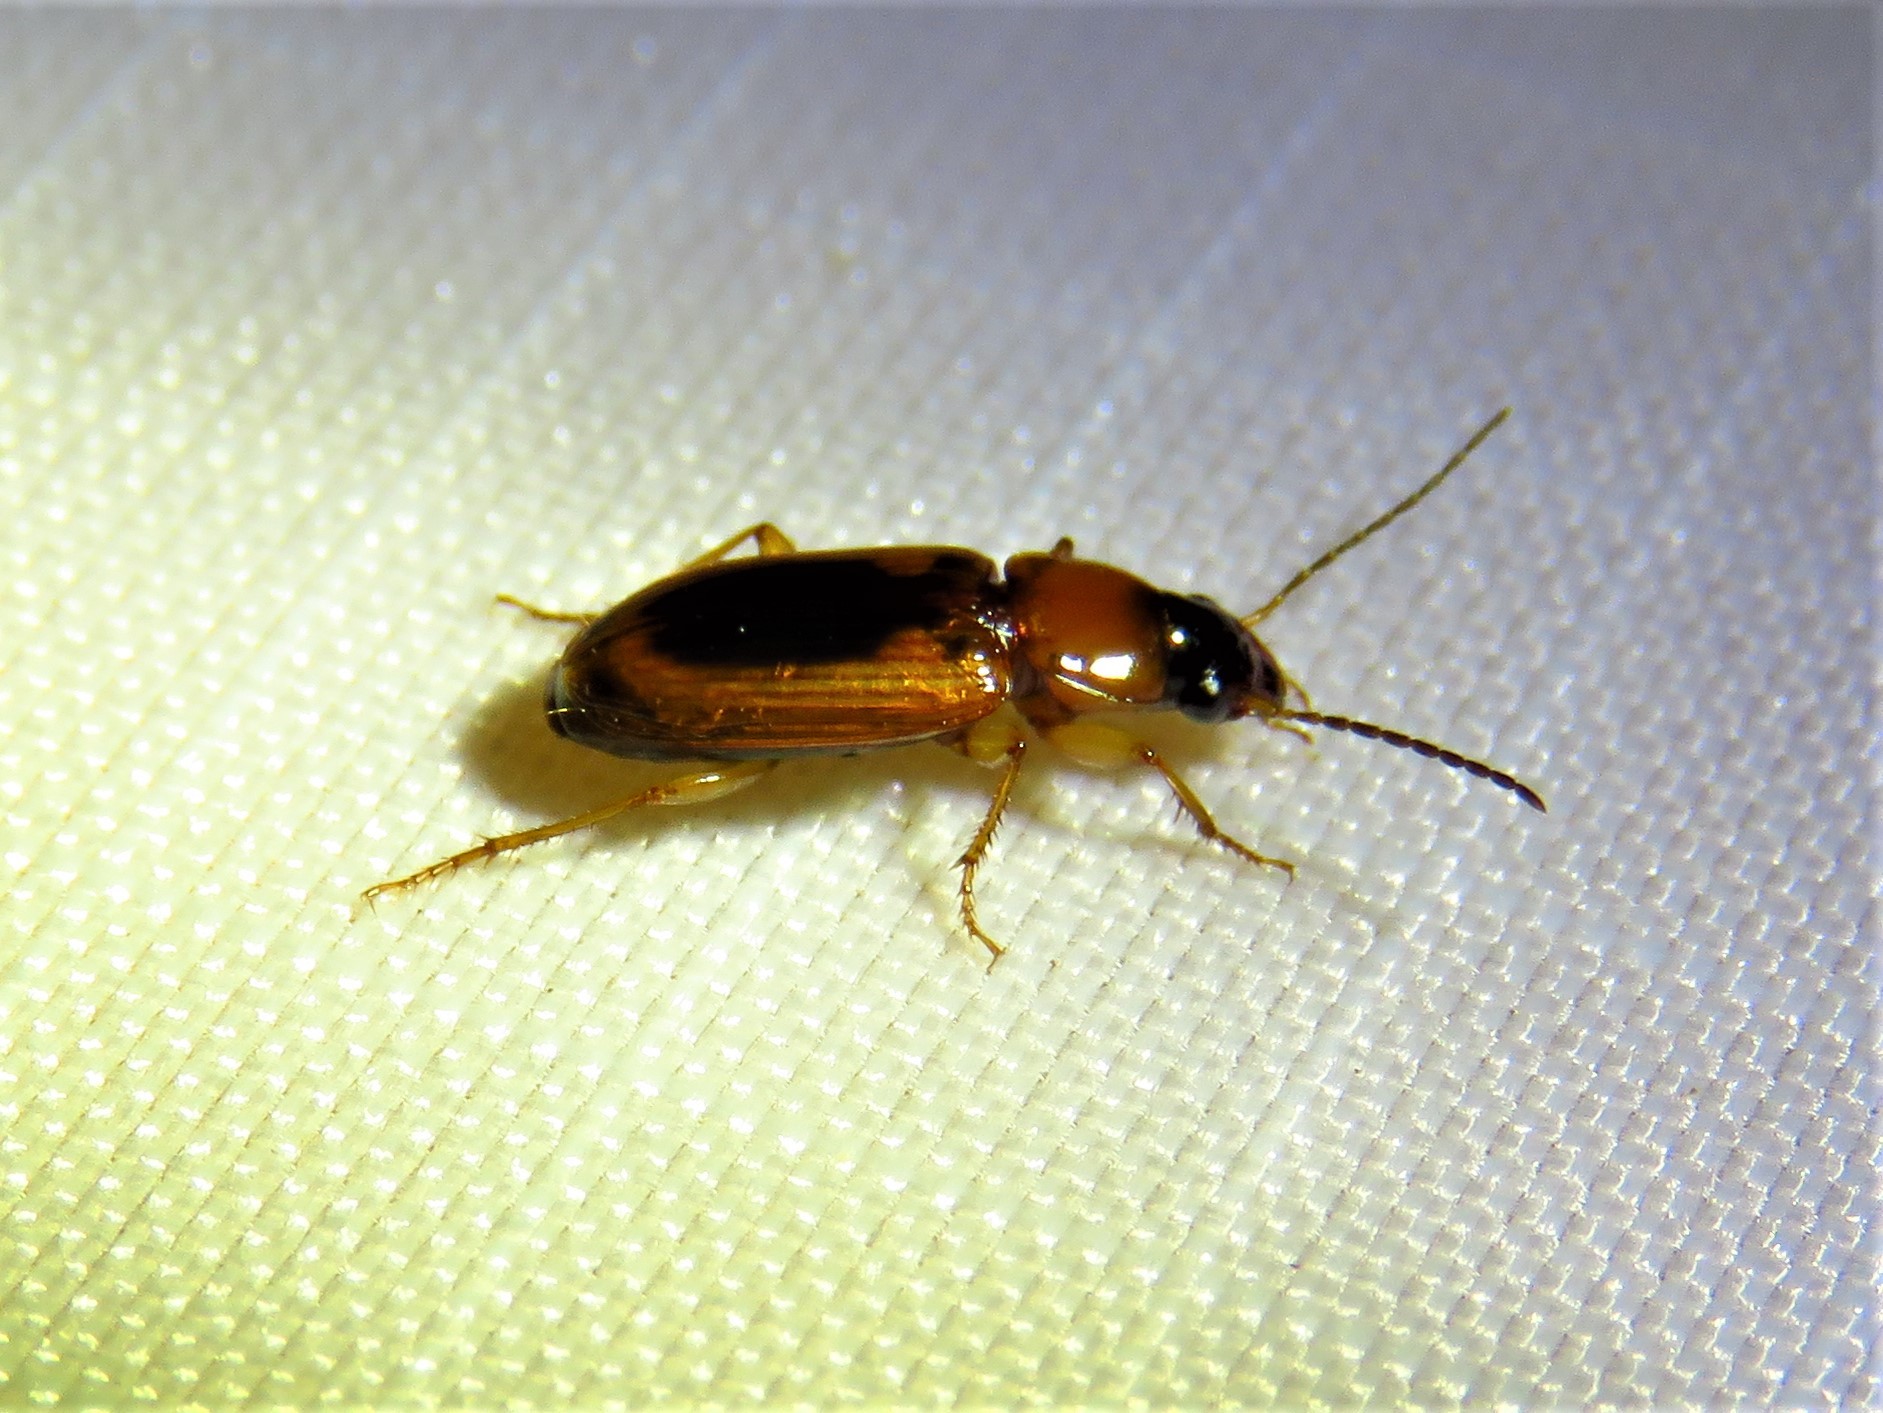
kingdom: Animalia
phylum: Arthropoda
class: Insecta
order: Coleoptera
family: Carabidae
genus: Stenolophus
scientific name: Stenolophus dissimilis
